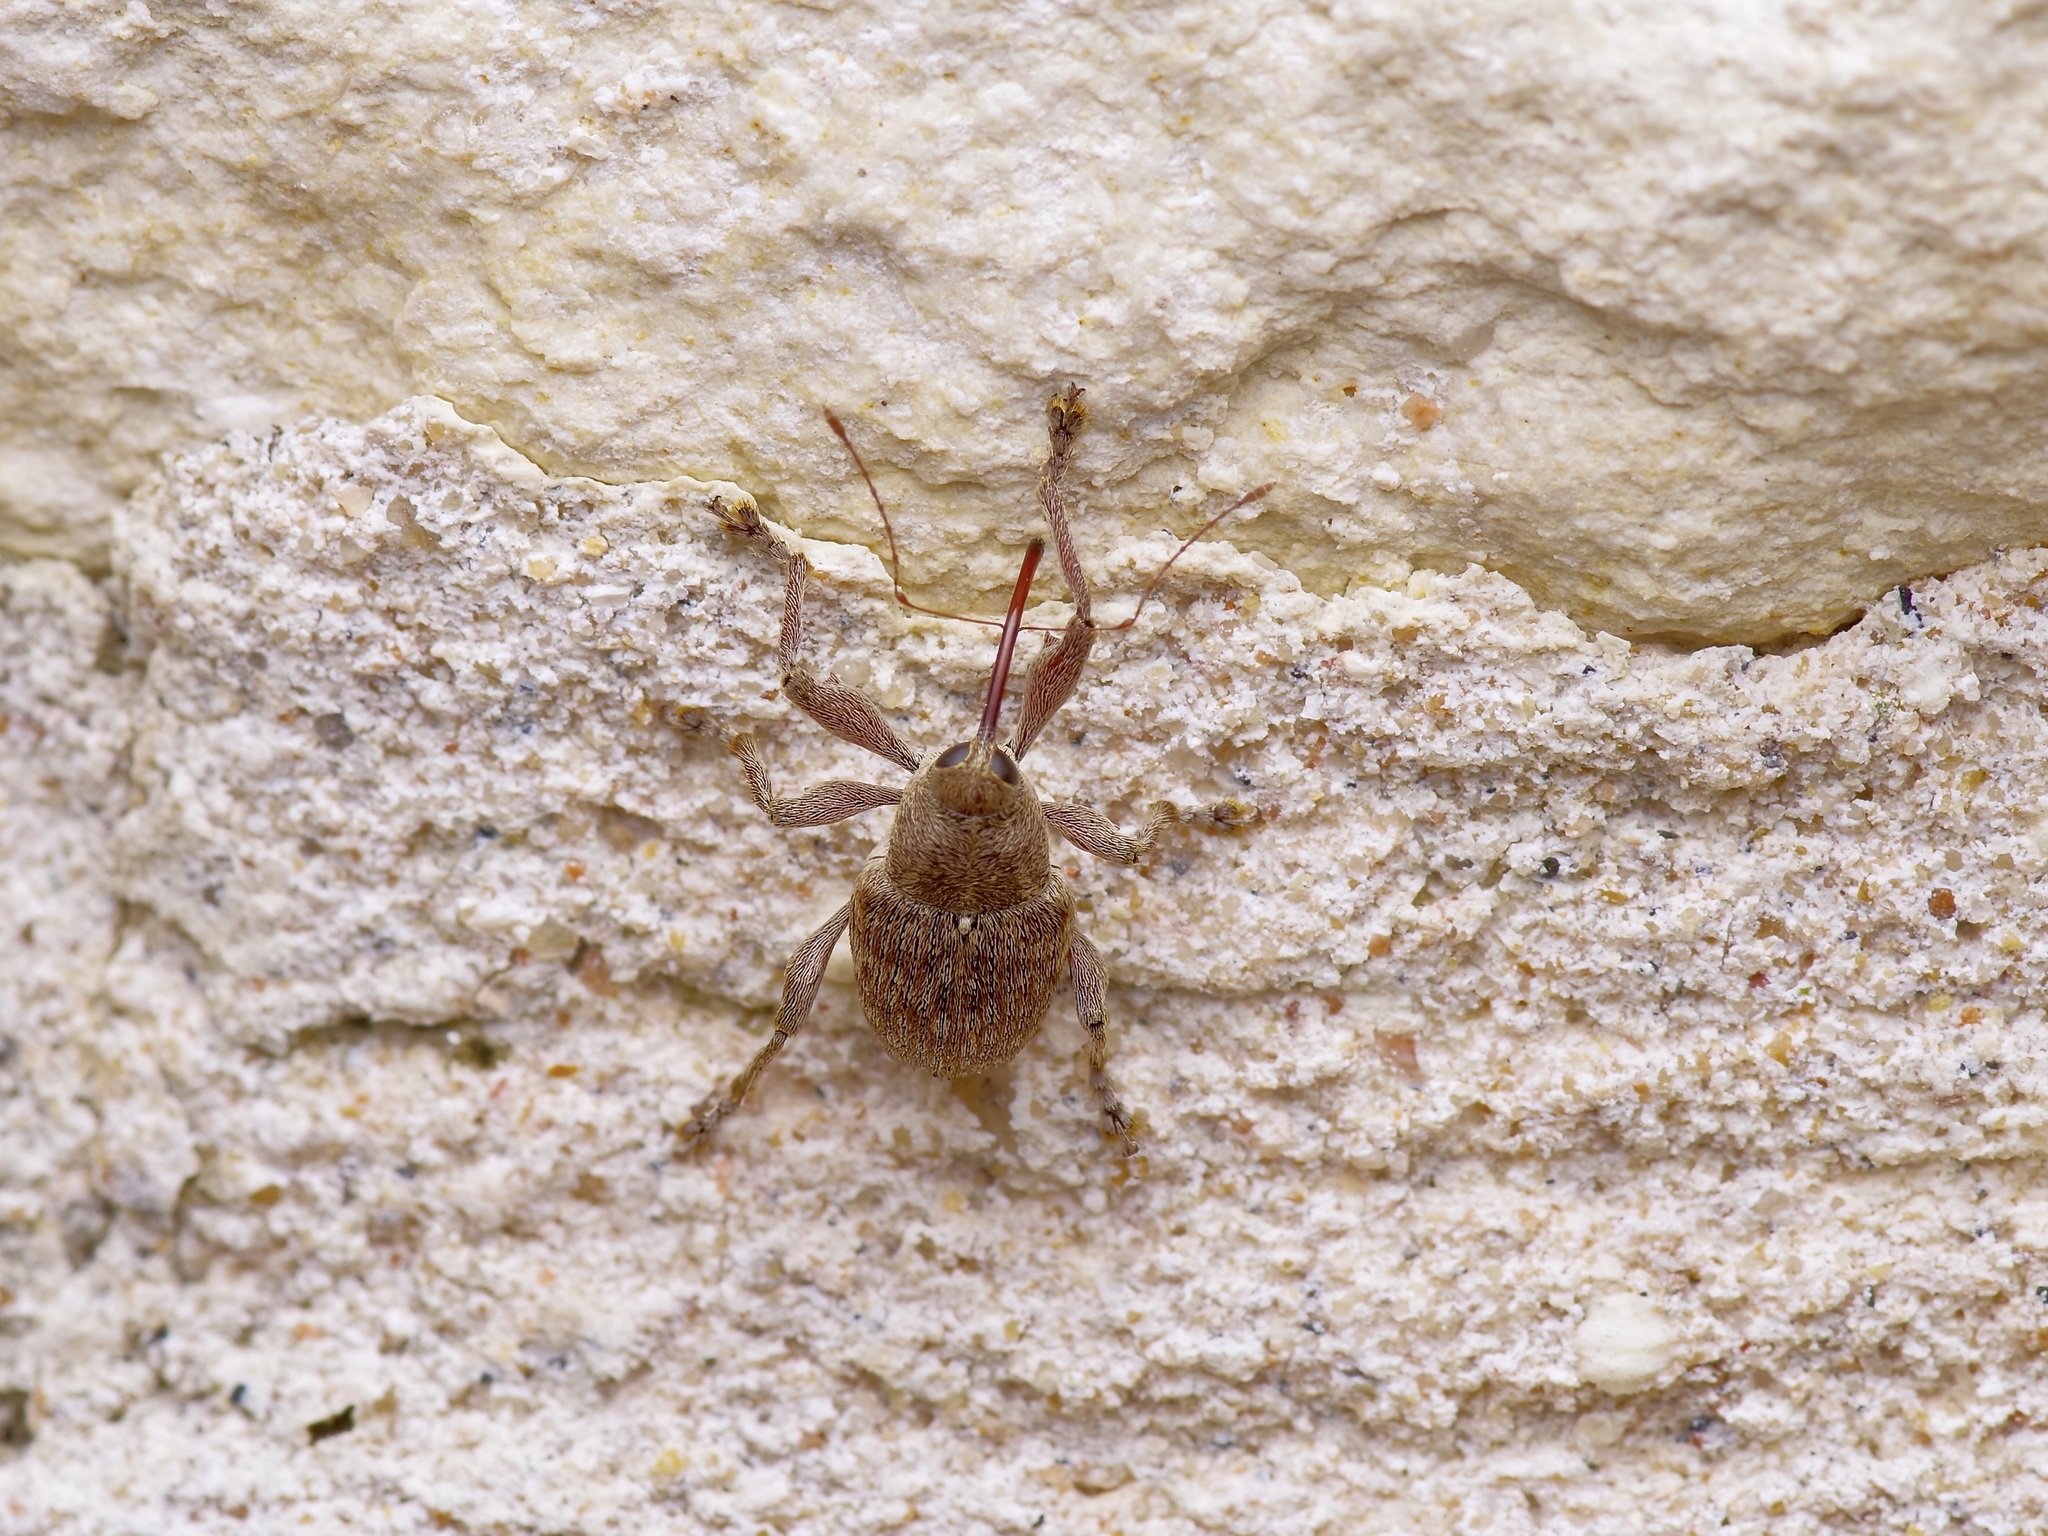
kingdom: Animalia
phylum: Arthropoda
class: Insecta
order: Coleoptera
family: Curculionidae
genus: Curculio
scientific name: Curculio
